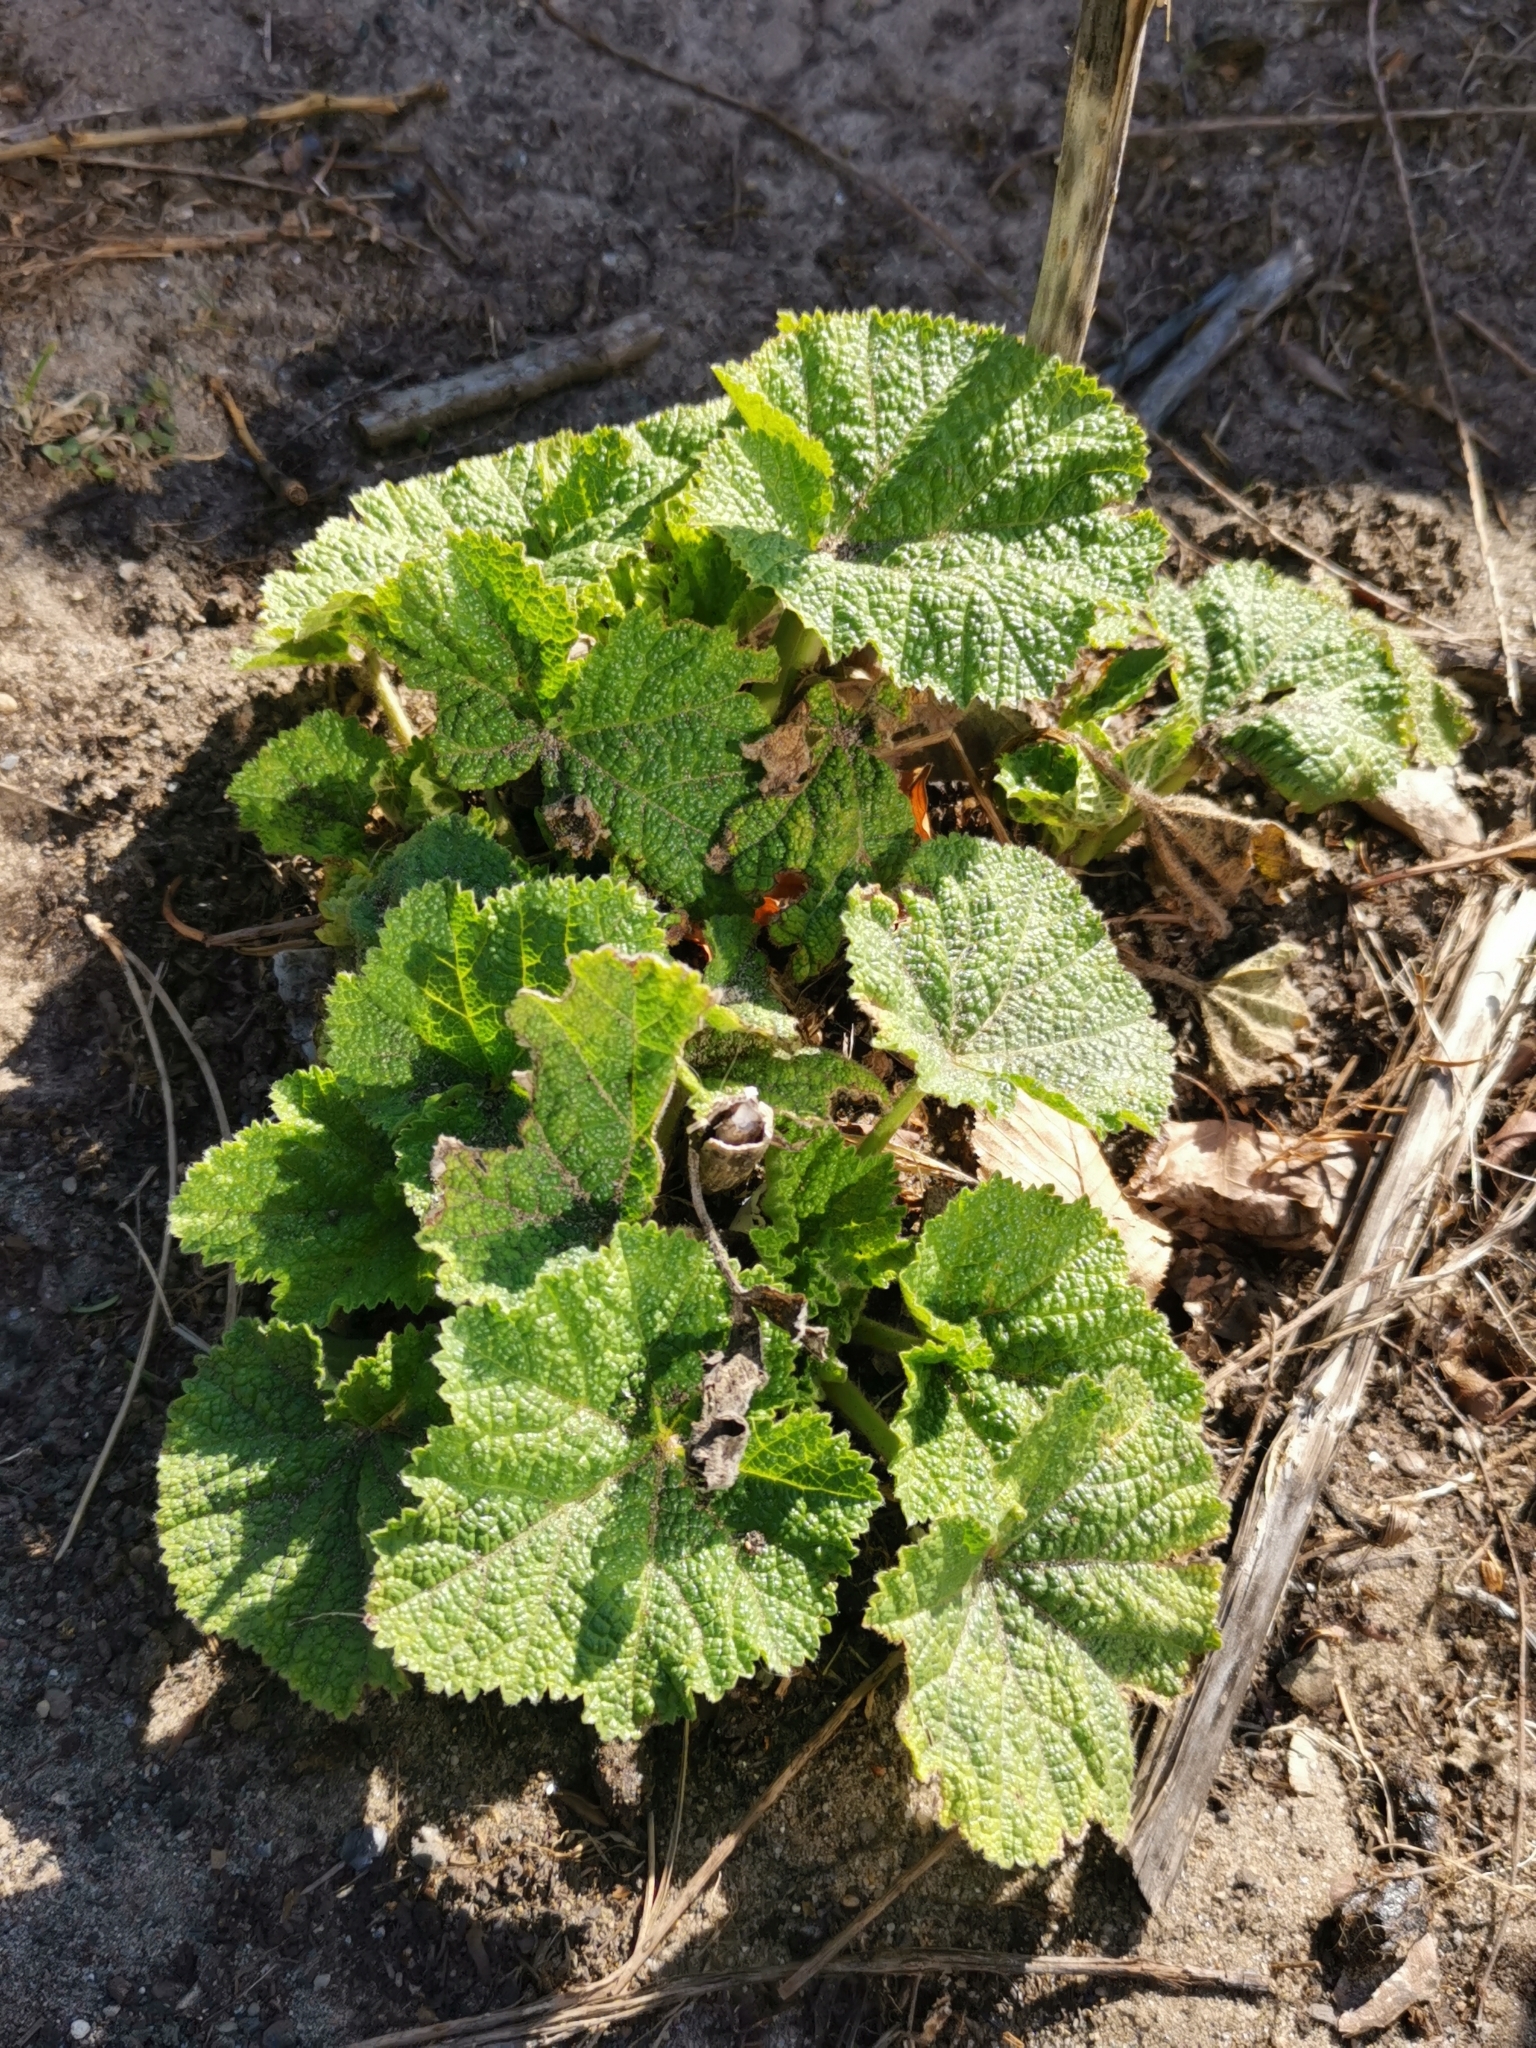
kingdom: Plantae
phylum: Tracheophyta
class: Magnoliopsida
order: Malvales
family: Malvaceae
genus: Alcea
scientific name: Alcea rosea
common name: Hollyhock
